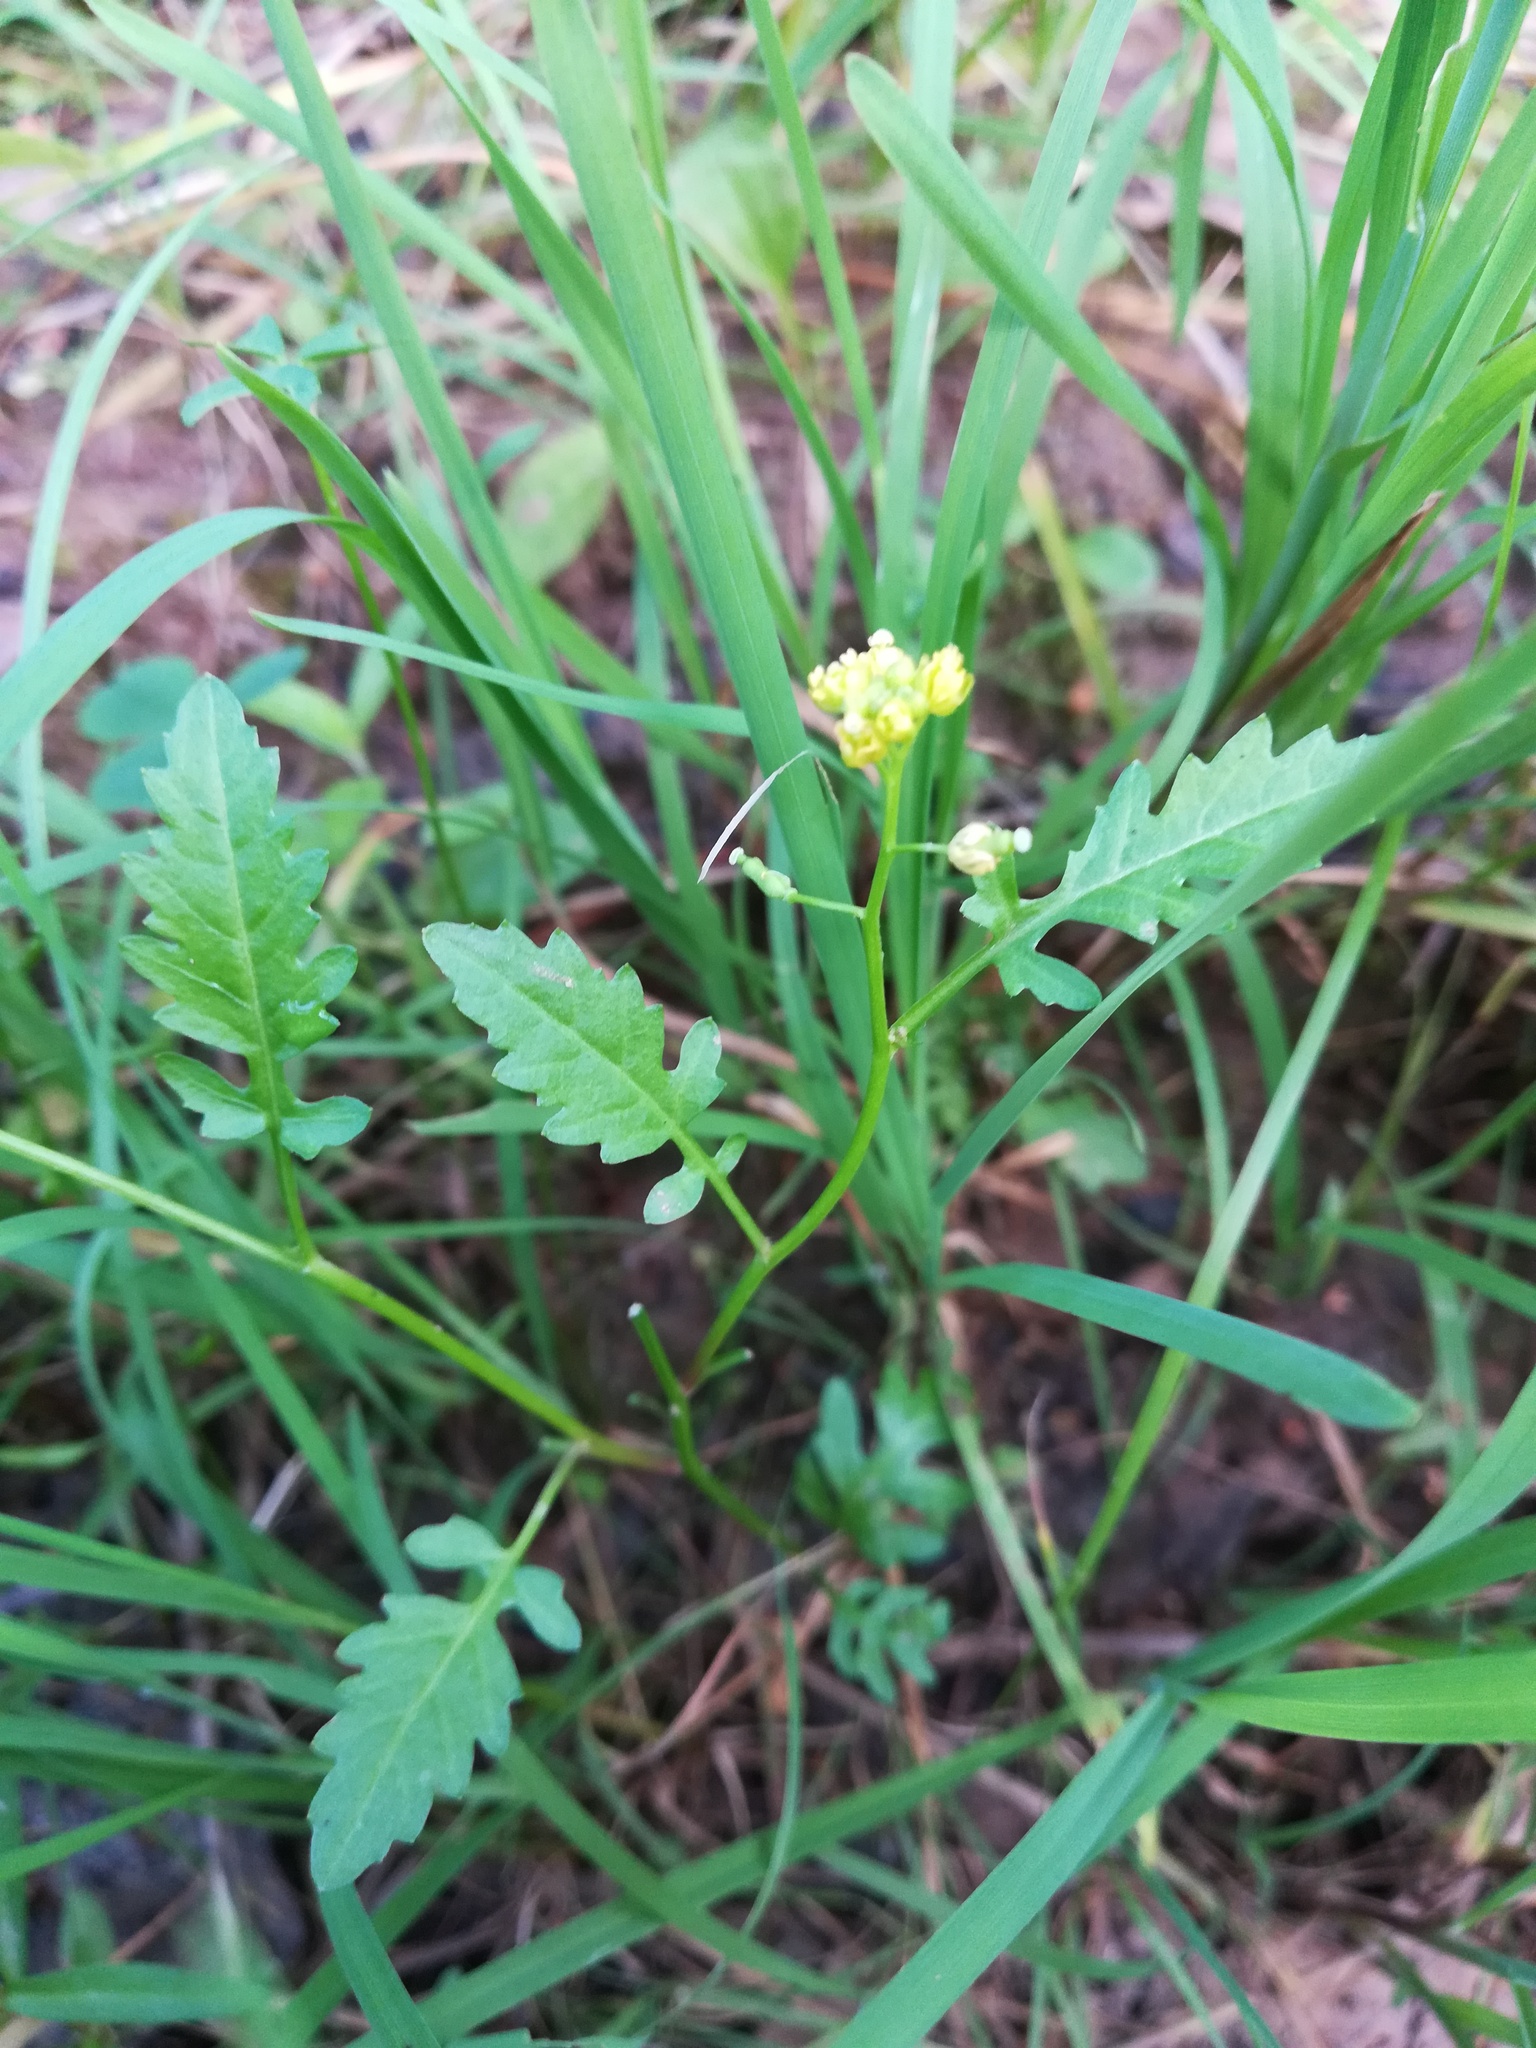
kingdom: Plantae
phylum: Tracheophyta
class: Magnoliopsida
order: Brassicales
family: Brassicaceae
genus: Rorippa
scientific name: Rorippa palustris
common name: Marsh yellow-cress
